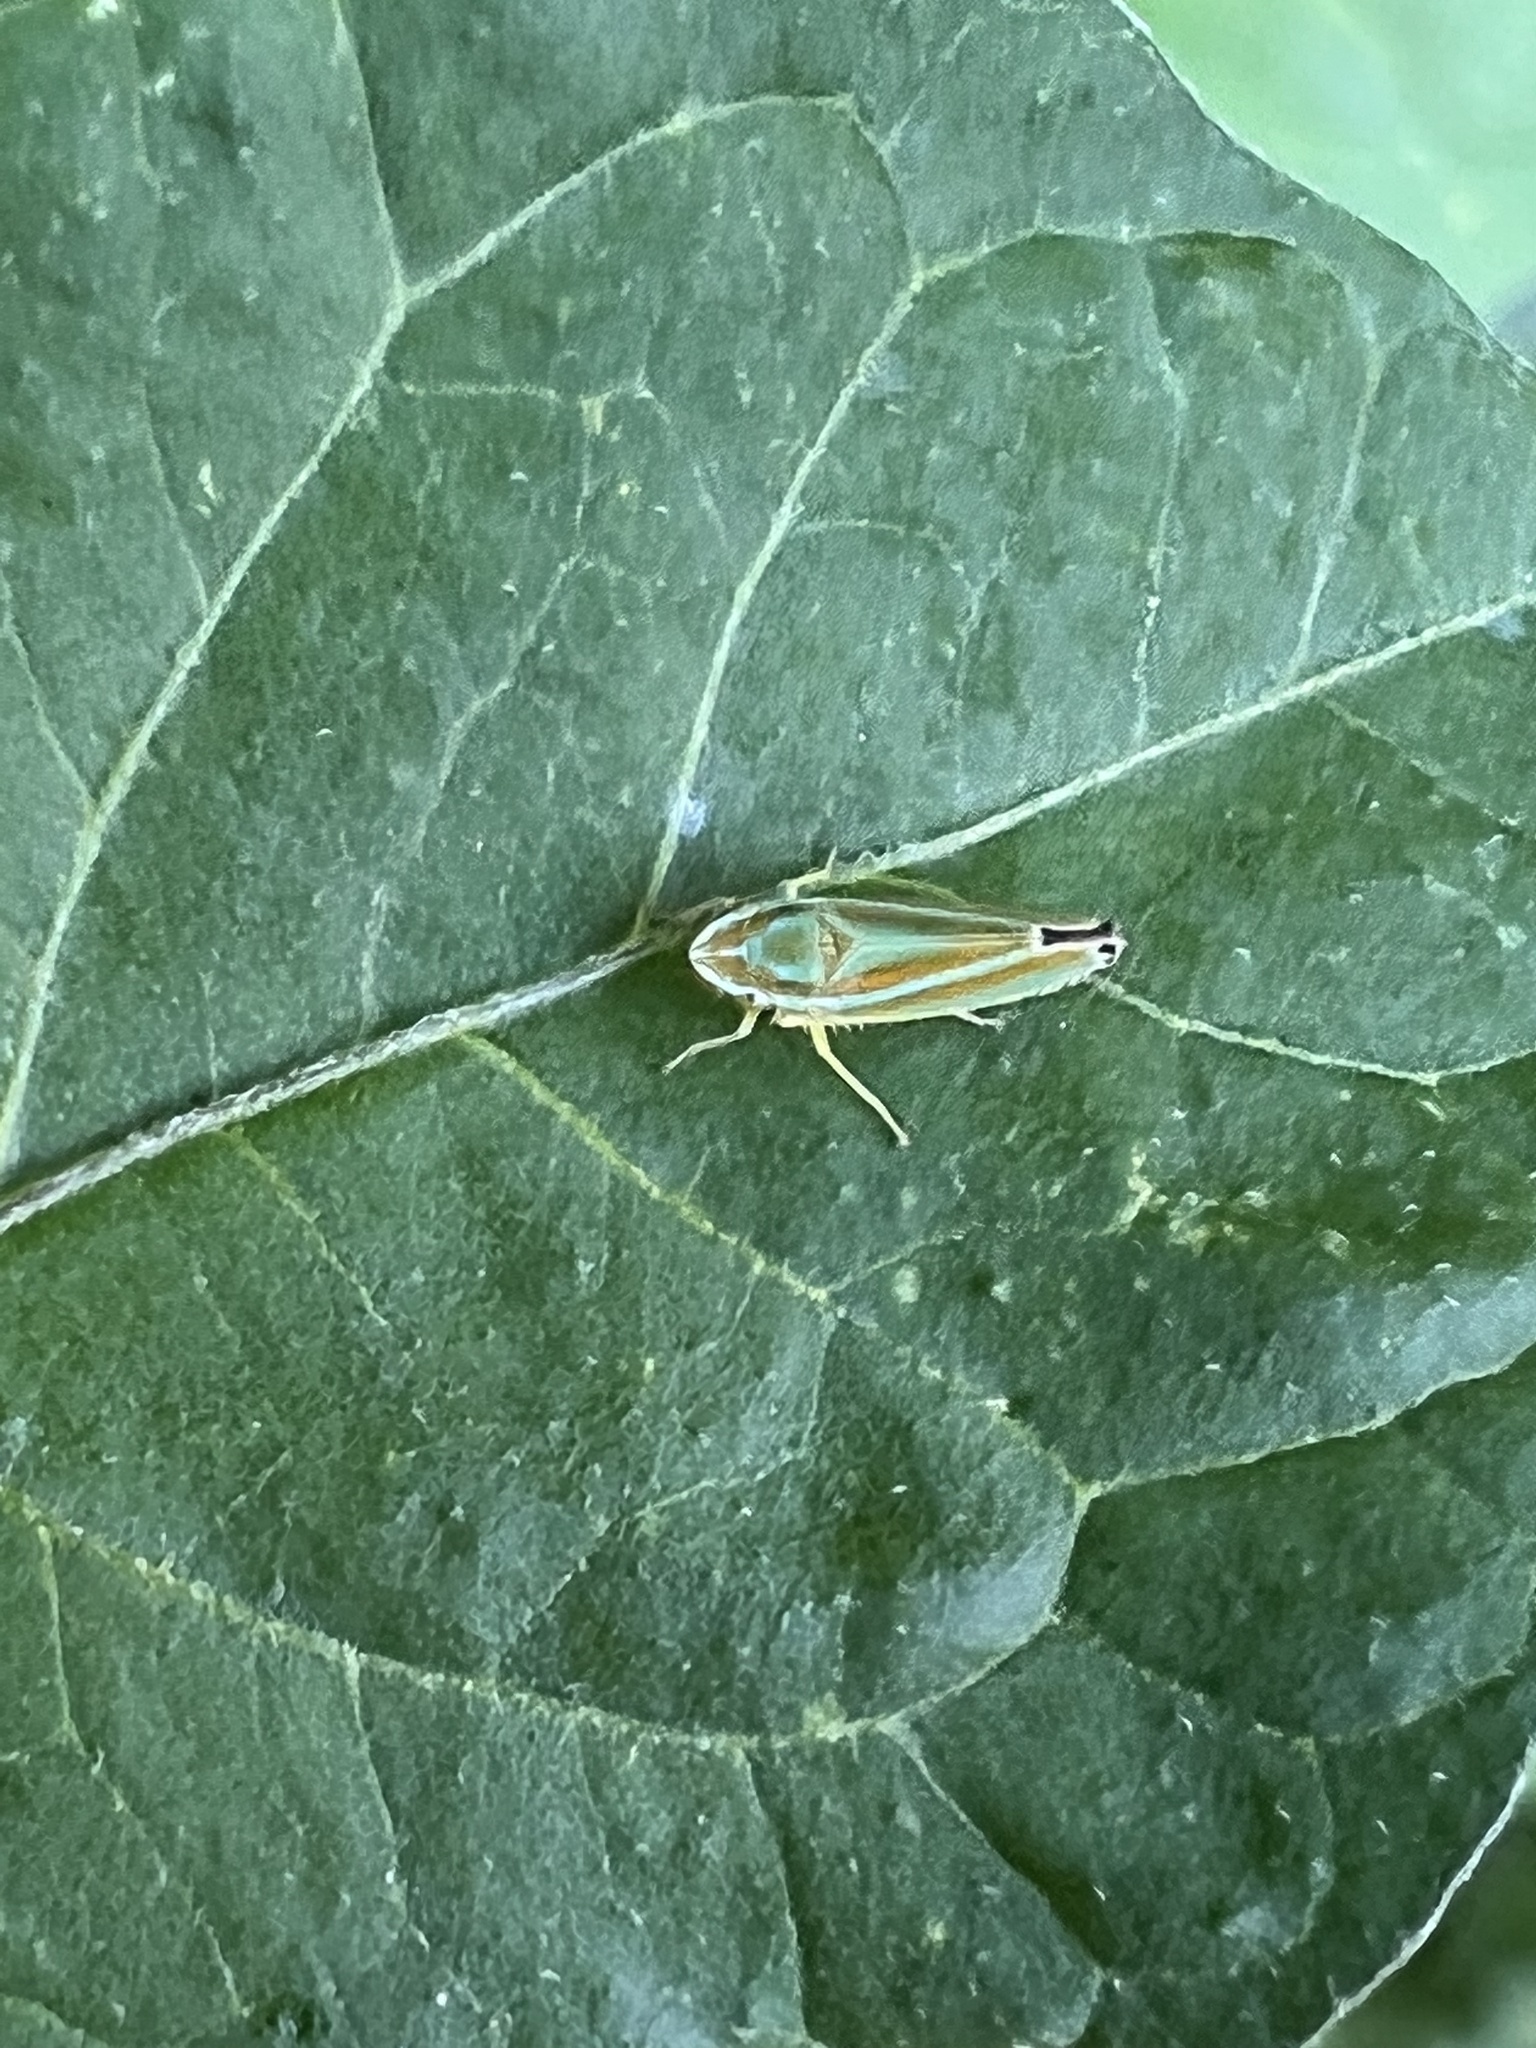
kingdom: Animalia
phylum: Arthropoda
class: Insecta
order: Hemiptera
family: Cicadellidae
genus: Graphocephala
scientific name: Graphocephala versuta
